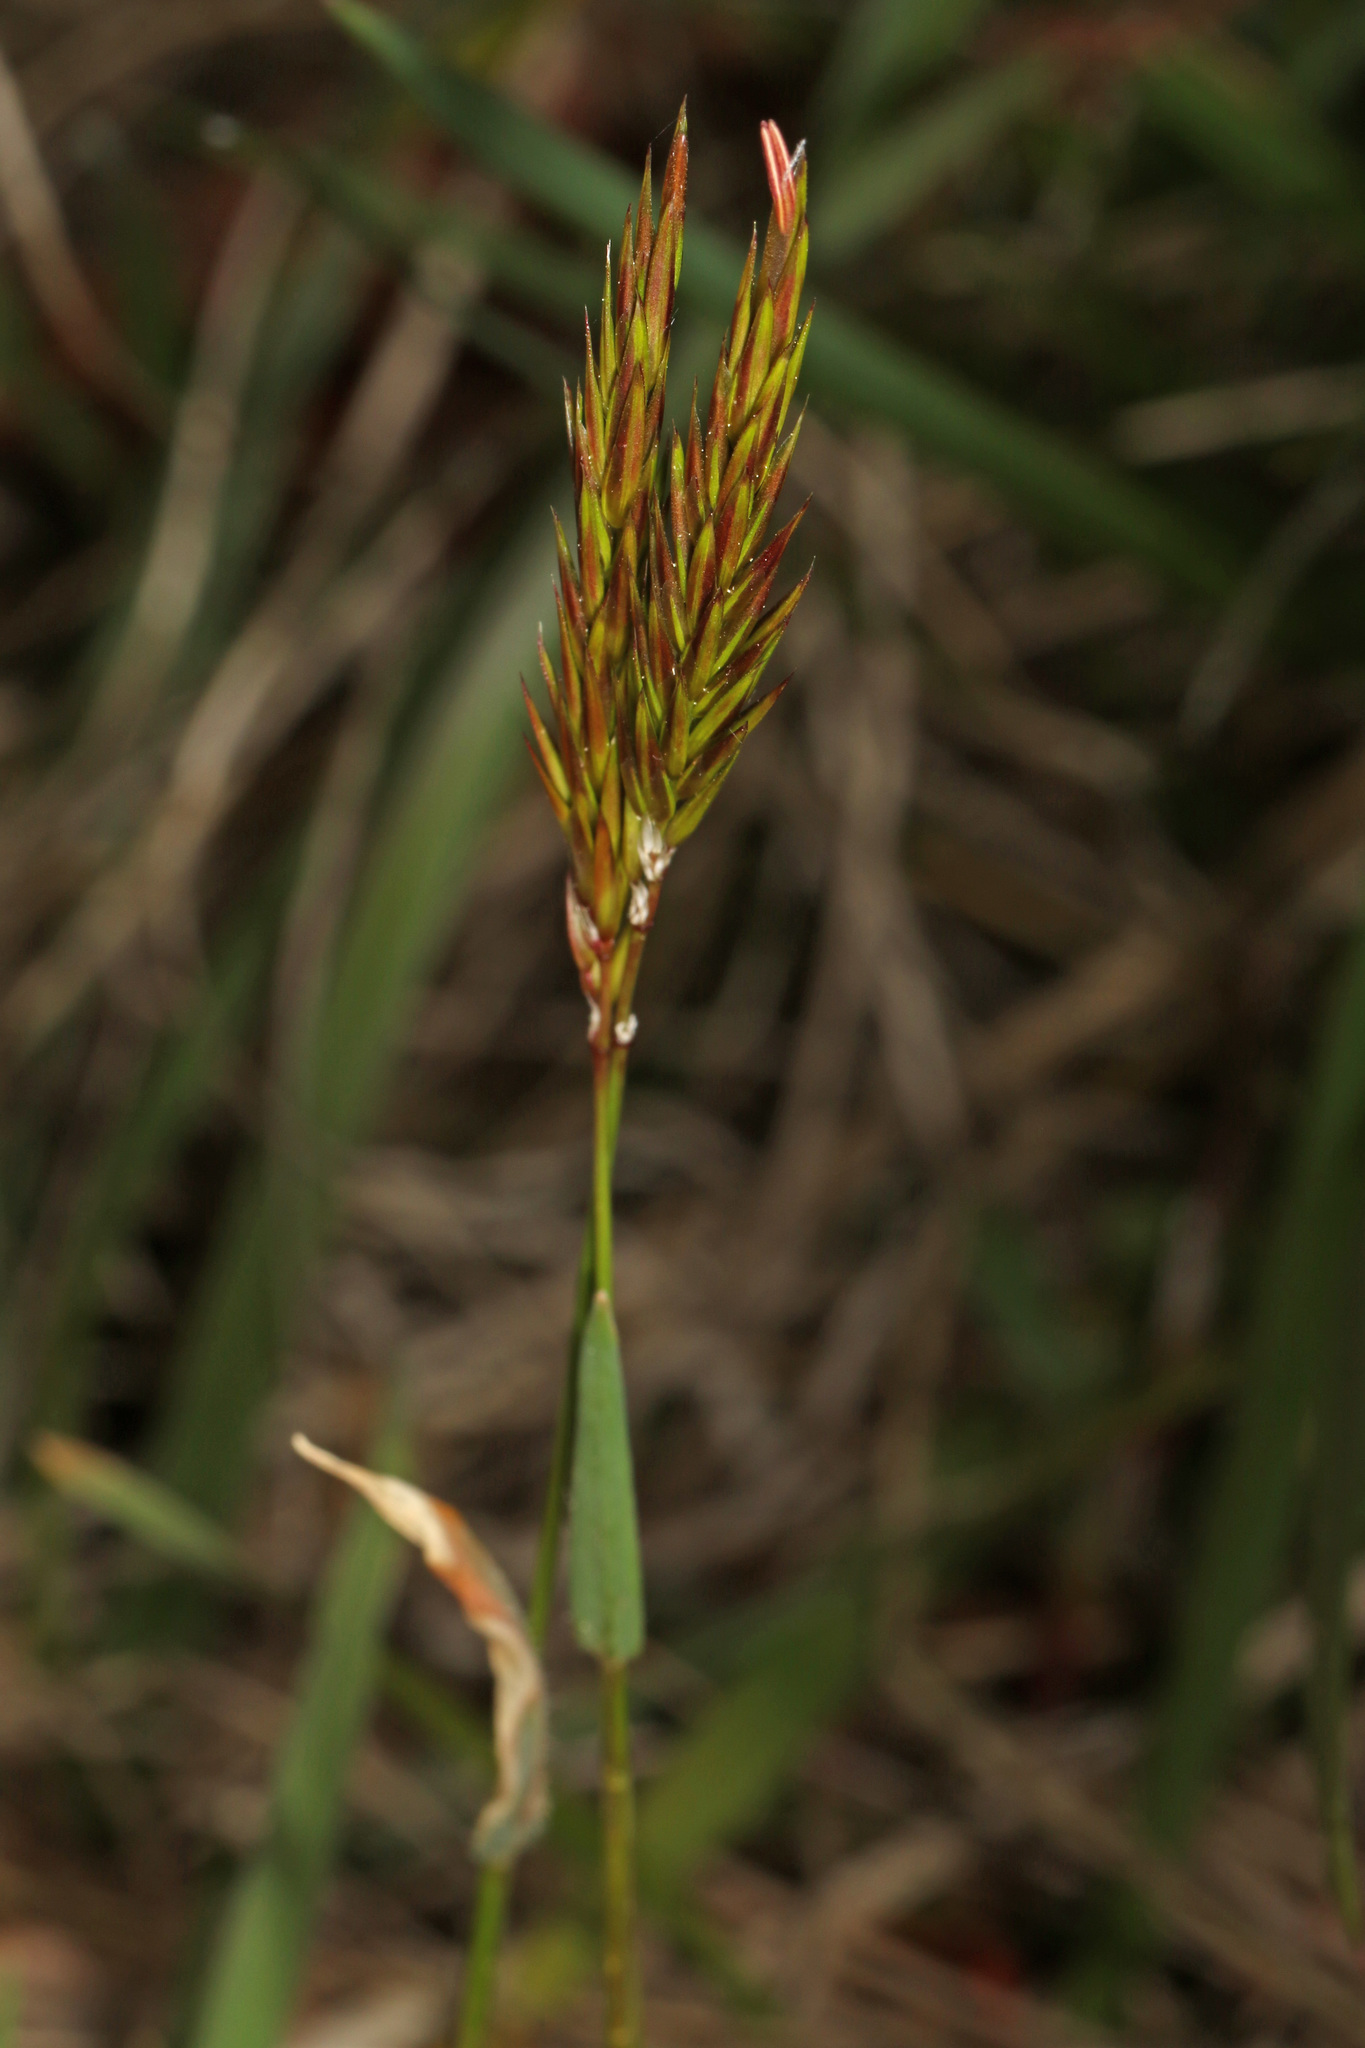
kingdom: Plantae
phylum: Tracheophyta
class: Liliopsida
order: Poales
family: Poaceae
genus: Anthoxanthum
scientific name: Anthoxanthum odoratum
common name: Sweet vernalgrass
